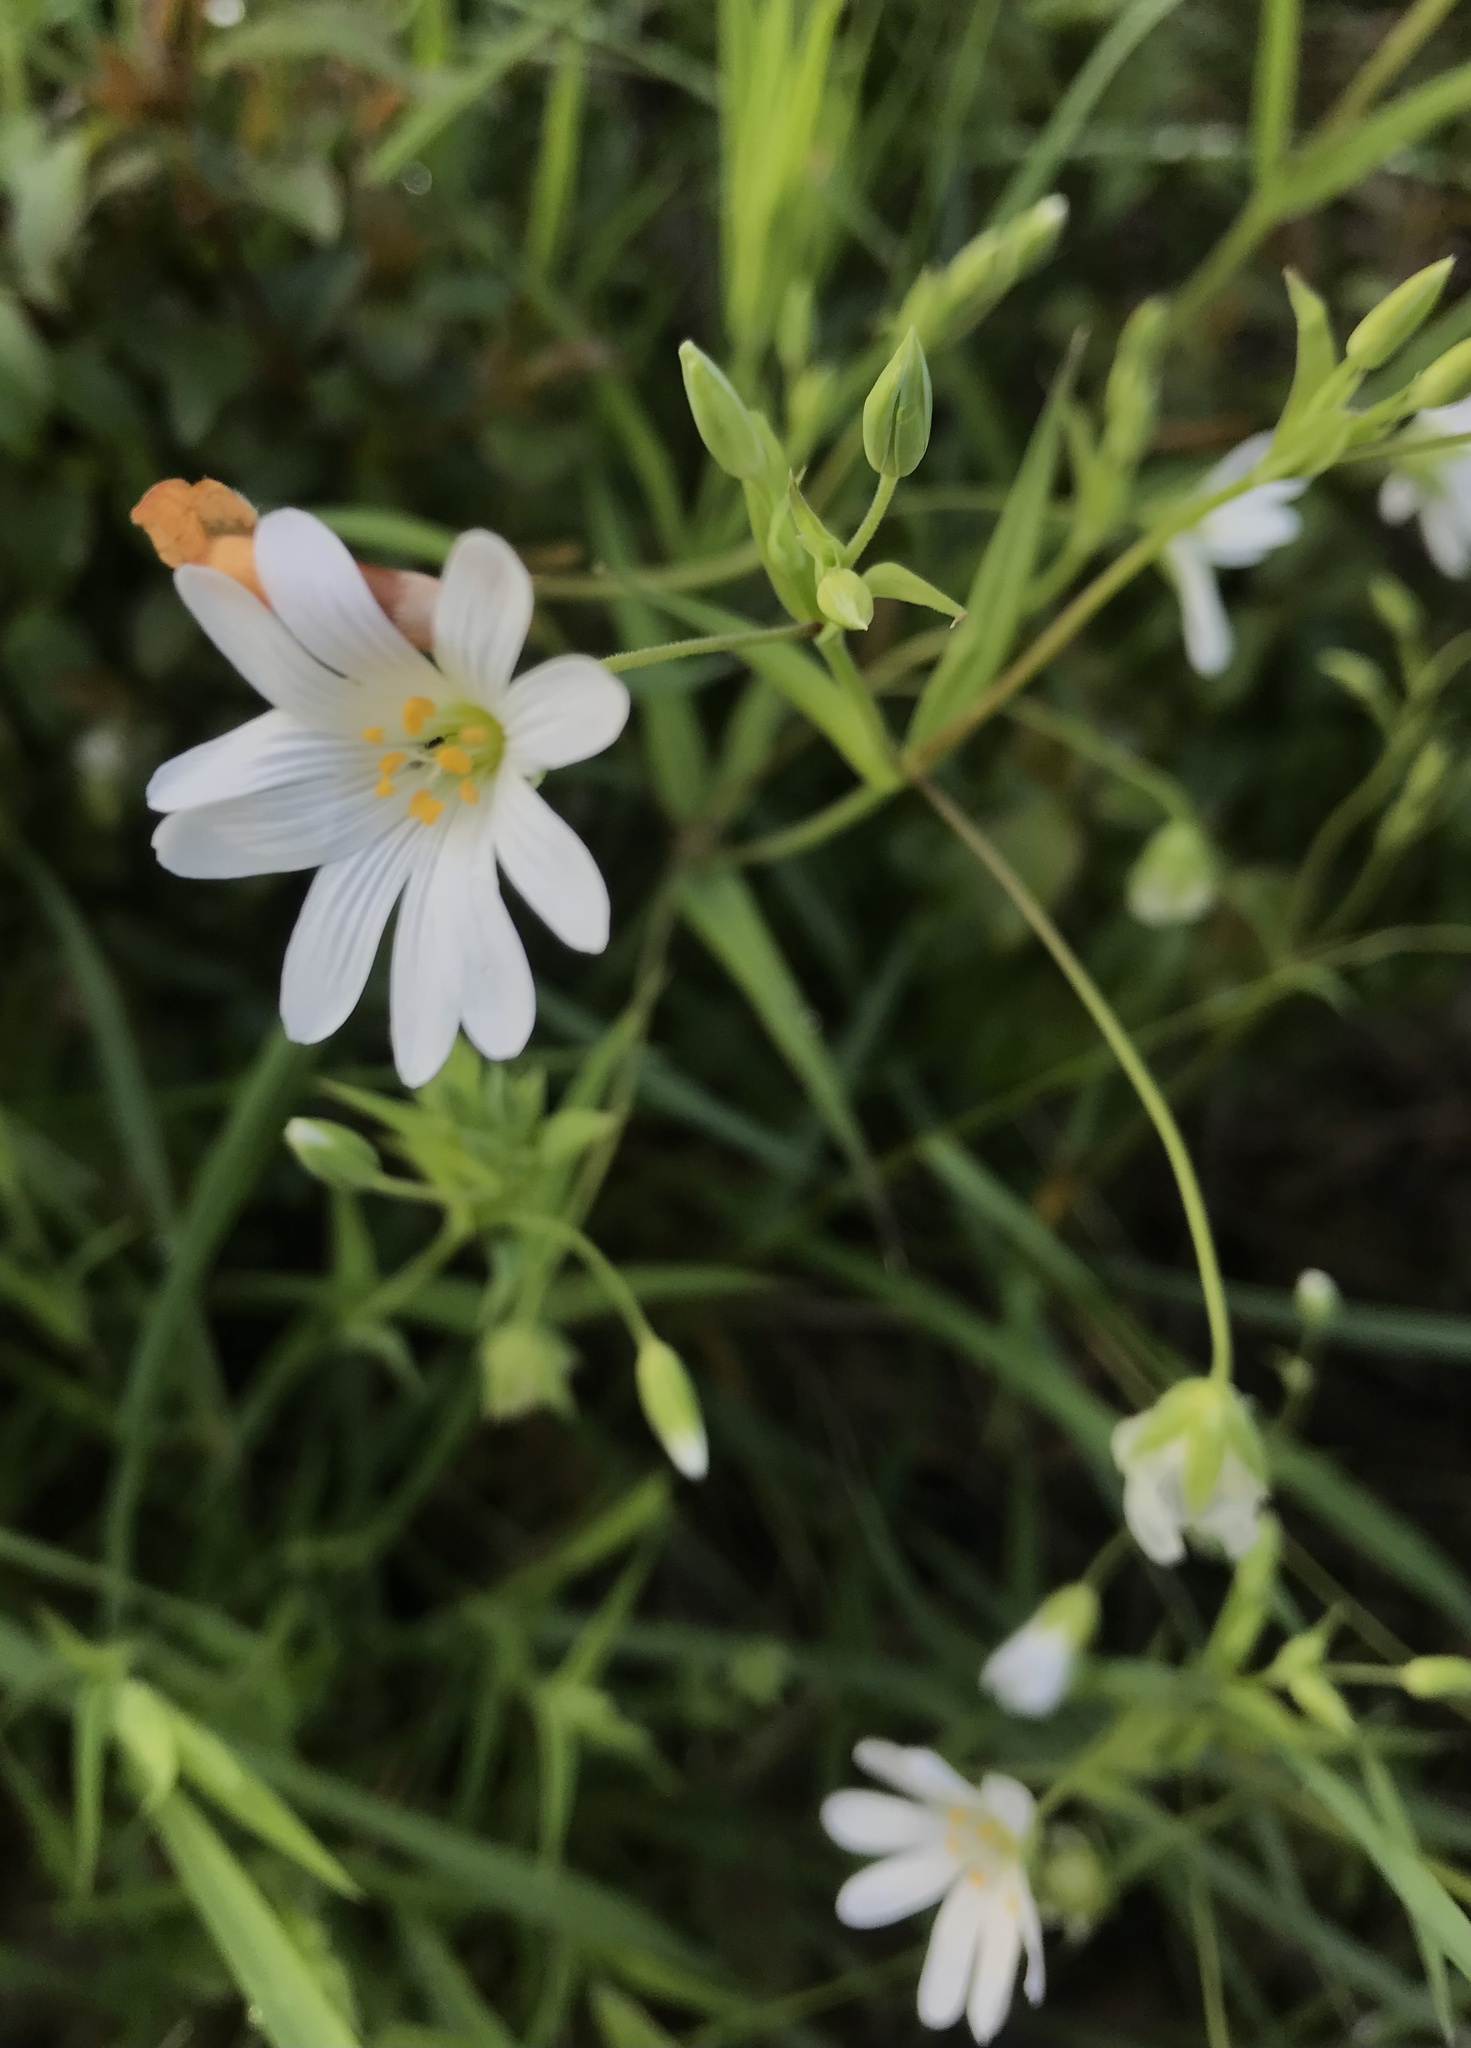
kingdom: Plantae
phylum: Tracheophyta
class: Magnoliopsida
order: Caryophyllales
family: Caryophyllaceae
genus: Rabelera
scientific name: Rabelera holostea
